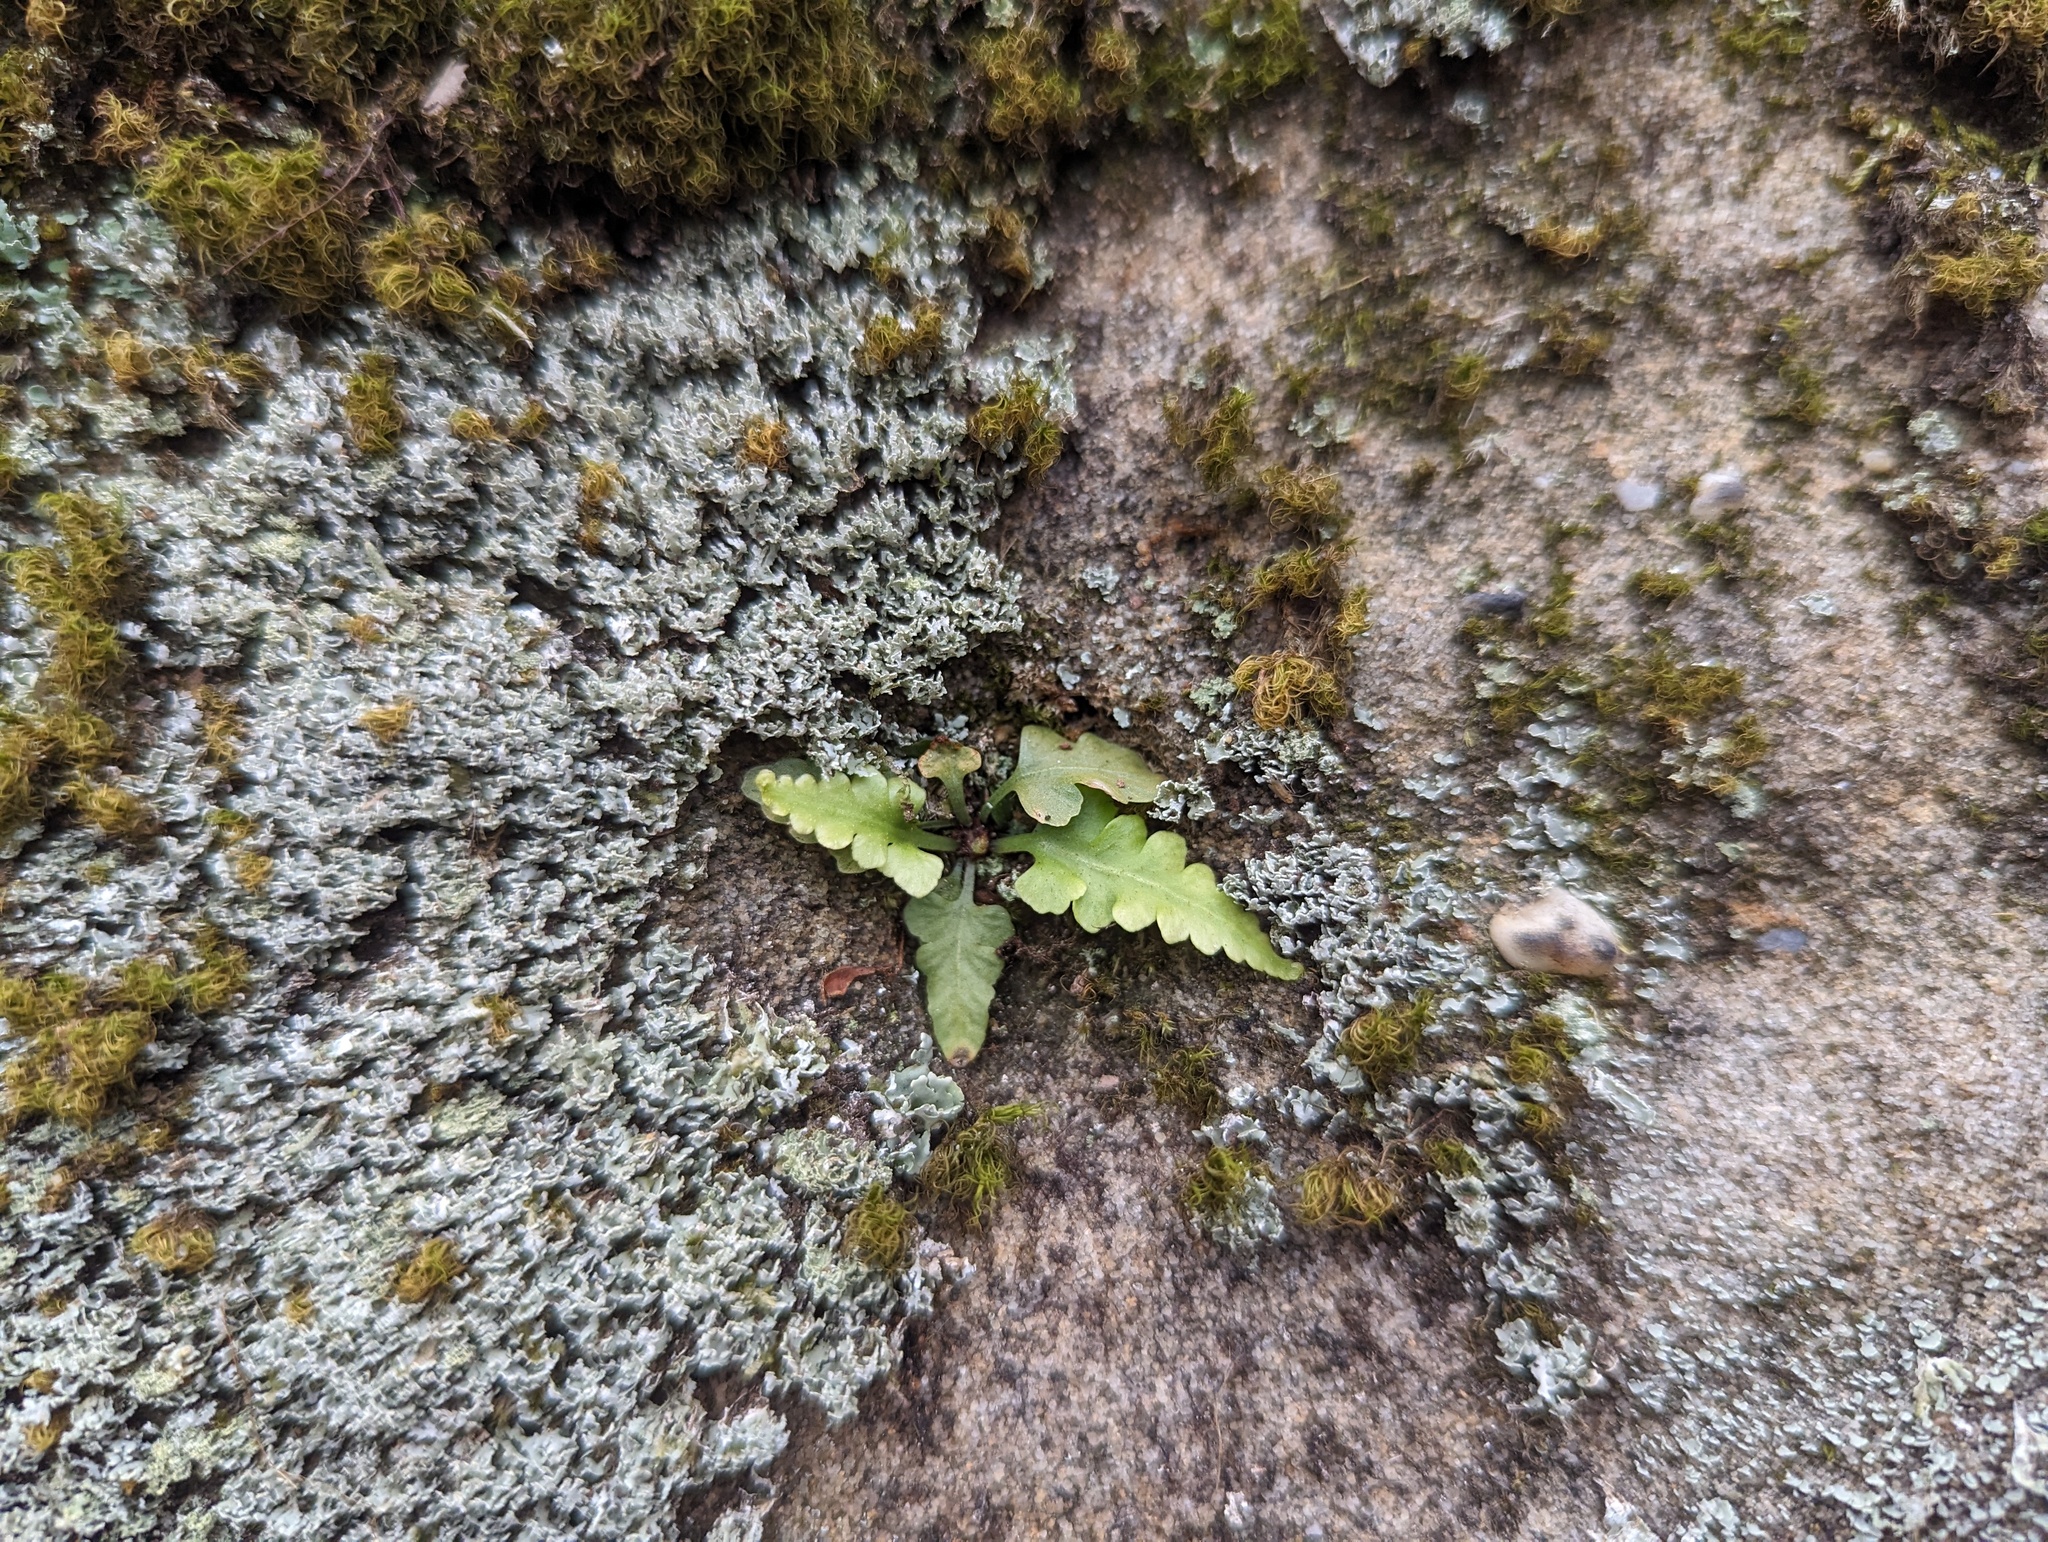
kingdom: Plantae
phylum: Tracheophyta
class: Polypodiopsida
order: Polypodiales
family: Aspleniaceae
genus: Asplenium
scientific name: Asplenium pinnatifidum
